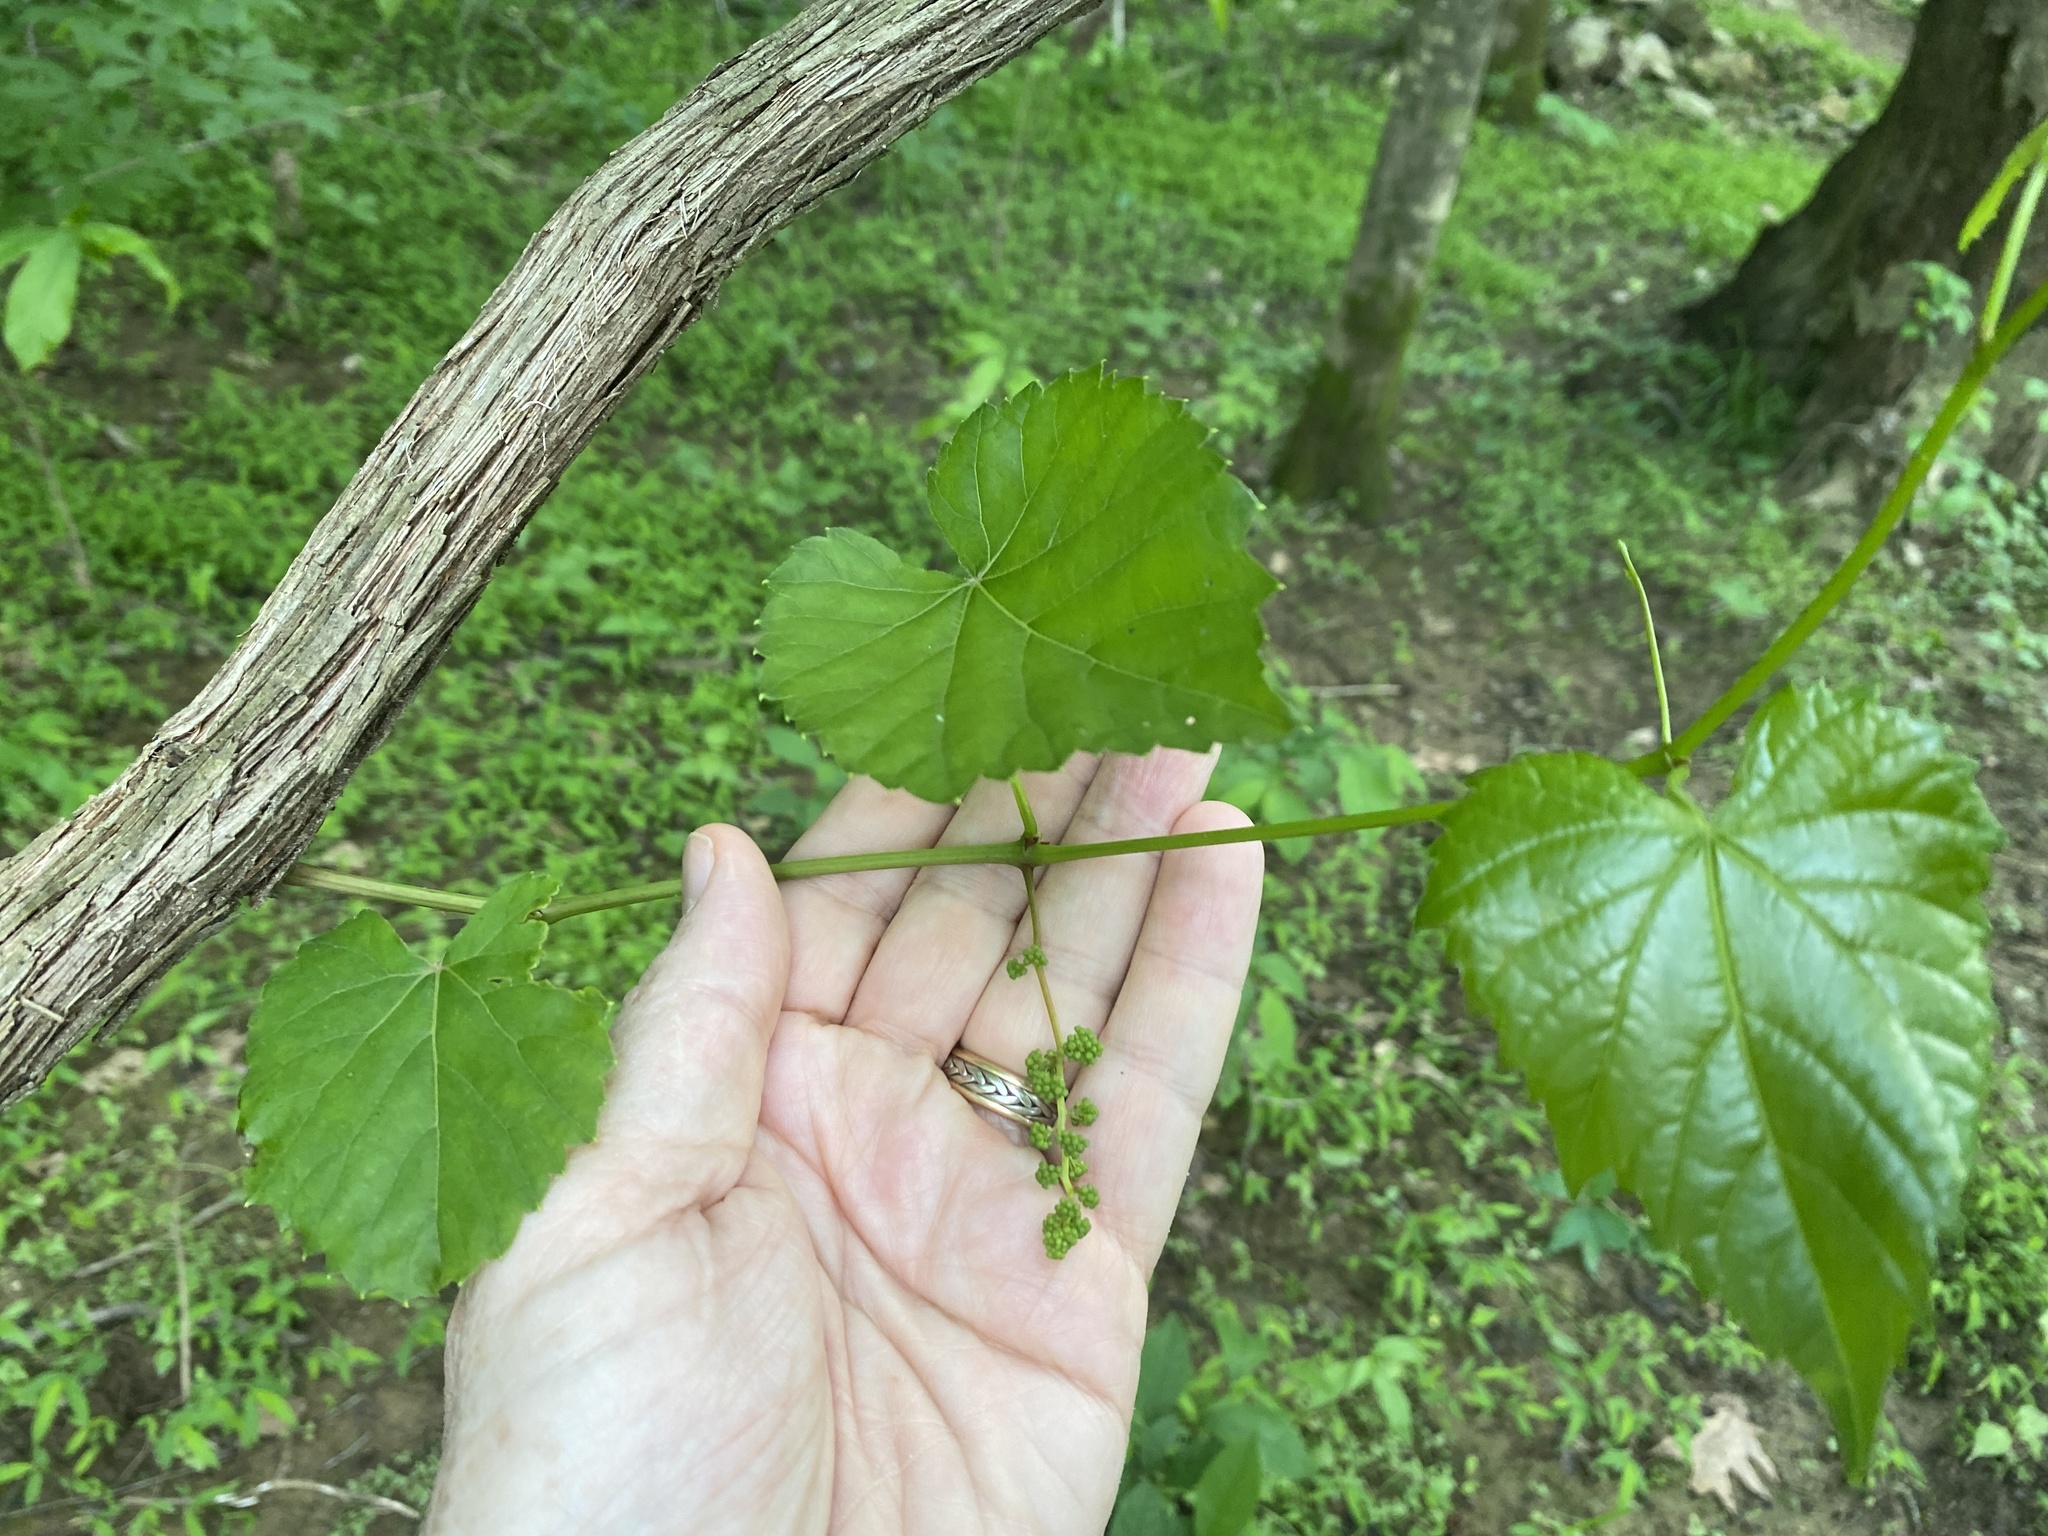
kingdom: Plantae
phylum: Tracheophyta
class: Magnoliopsida
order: Vitales
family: Vitaceae
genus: Vitis
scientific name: Vitis vulpina
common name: Frost grape
